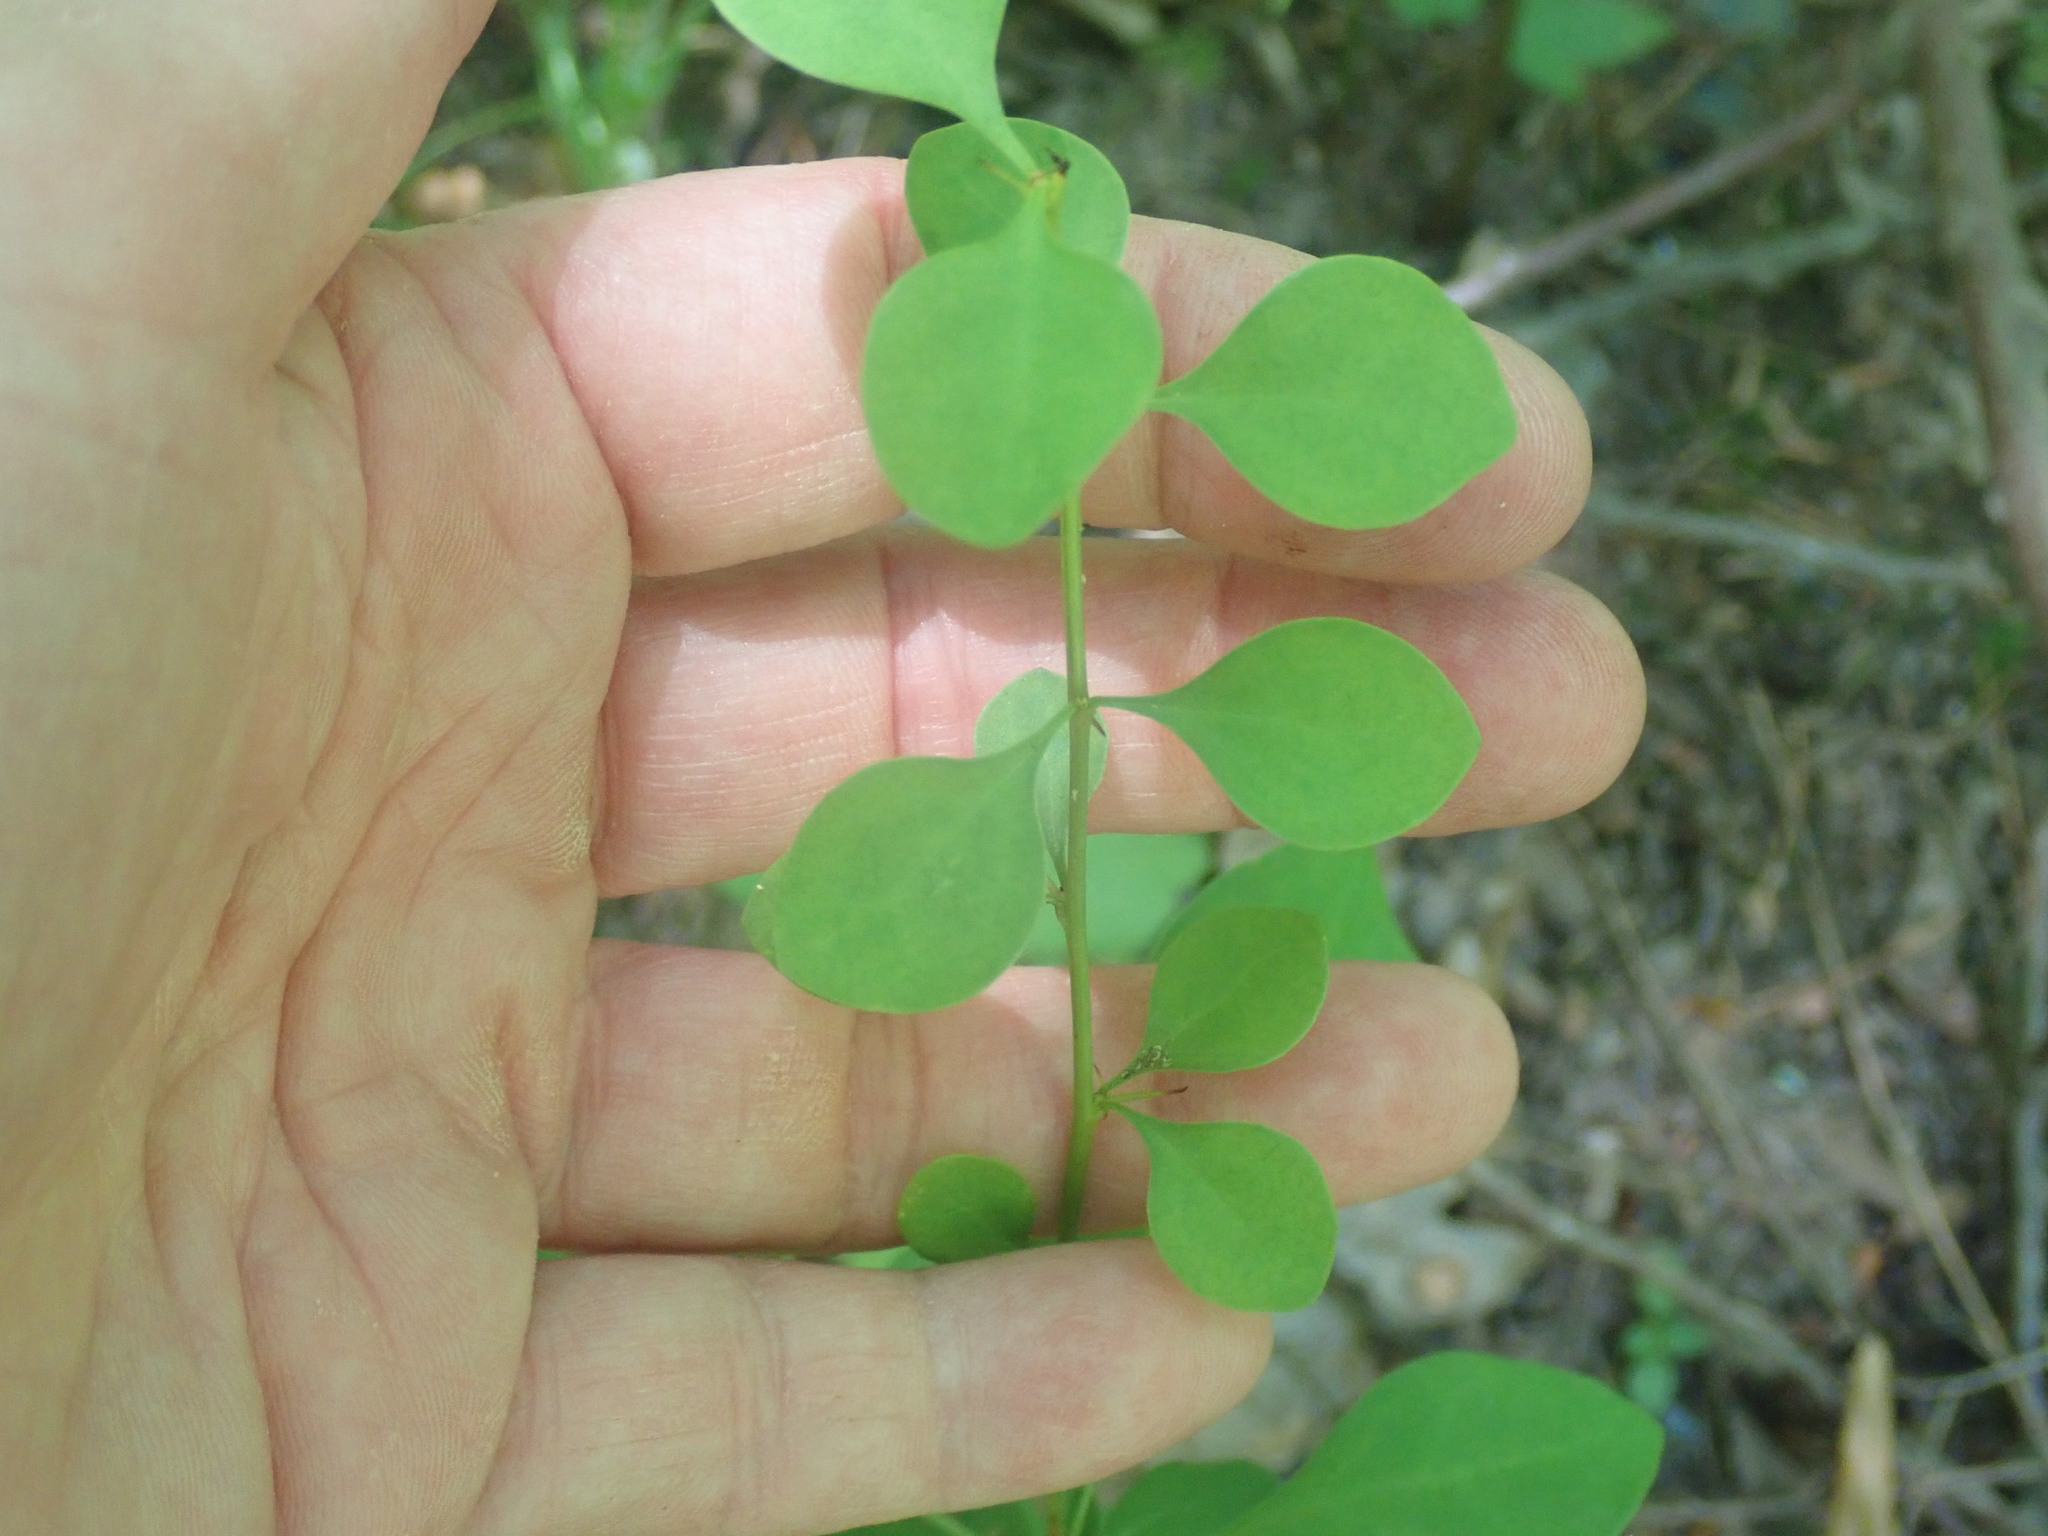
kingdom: Plantae
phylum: Tracheophyta
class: Magnoliopsida
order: Ranunculales
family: Berberidaceae
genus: Berberis
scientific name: Berberis thunbergii
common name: Japanese barberry
